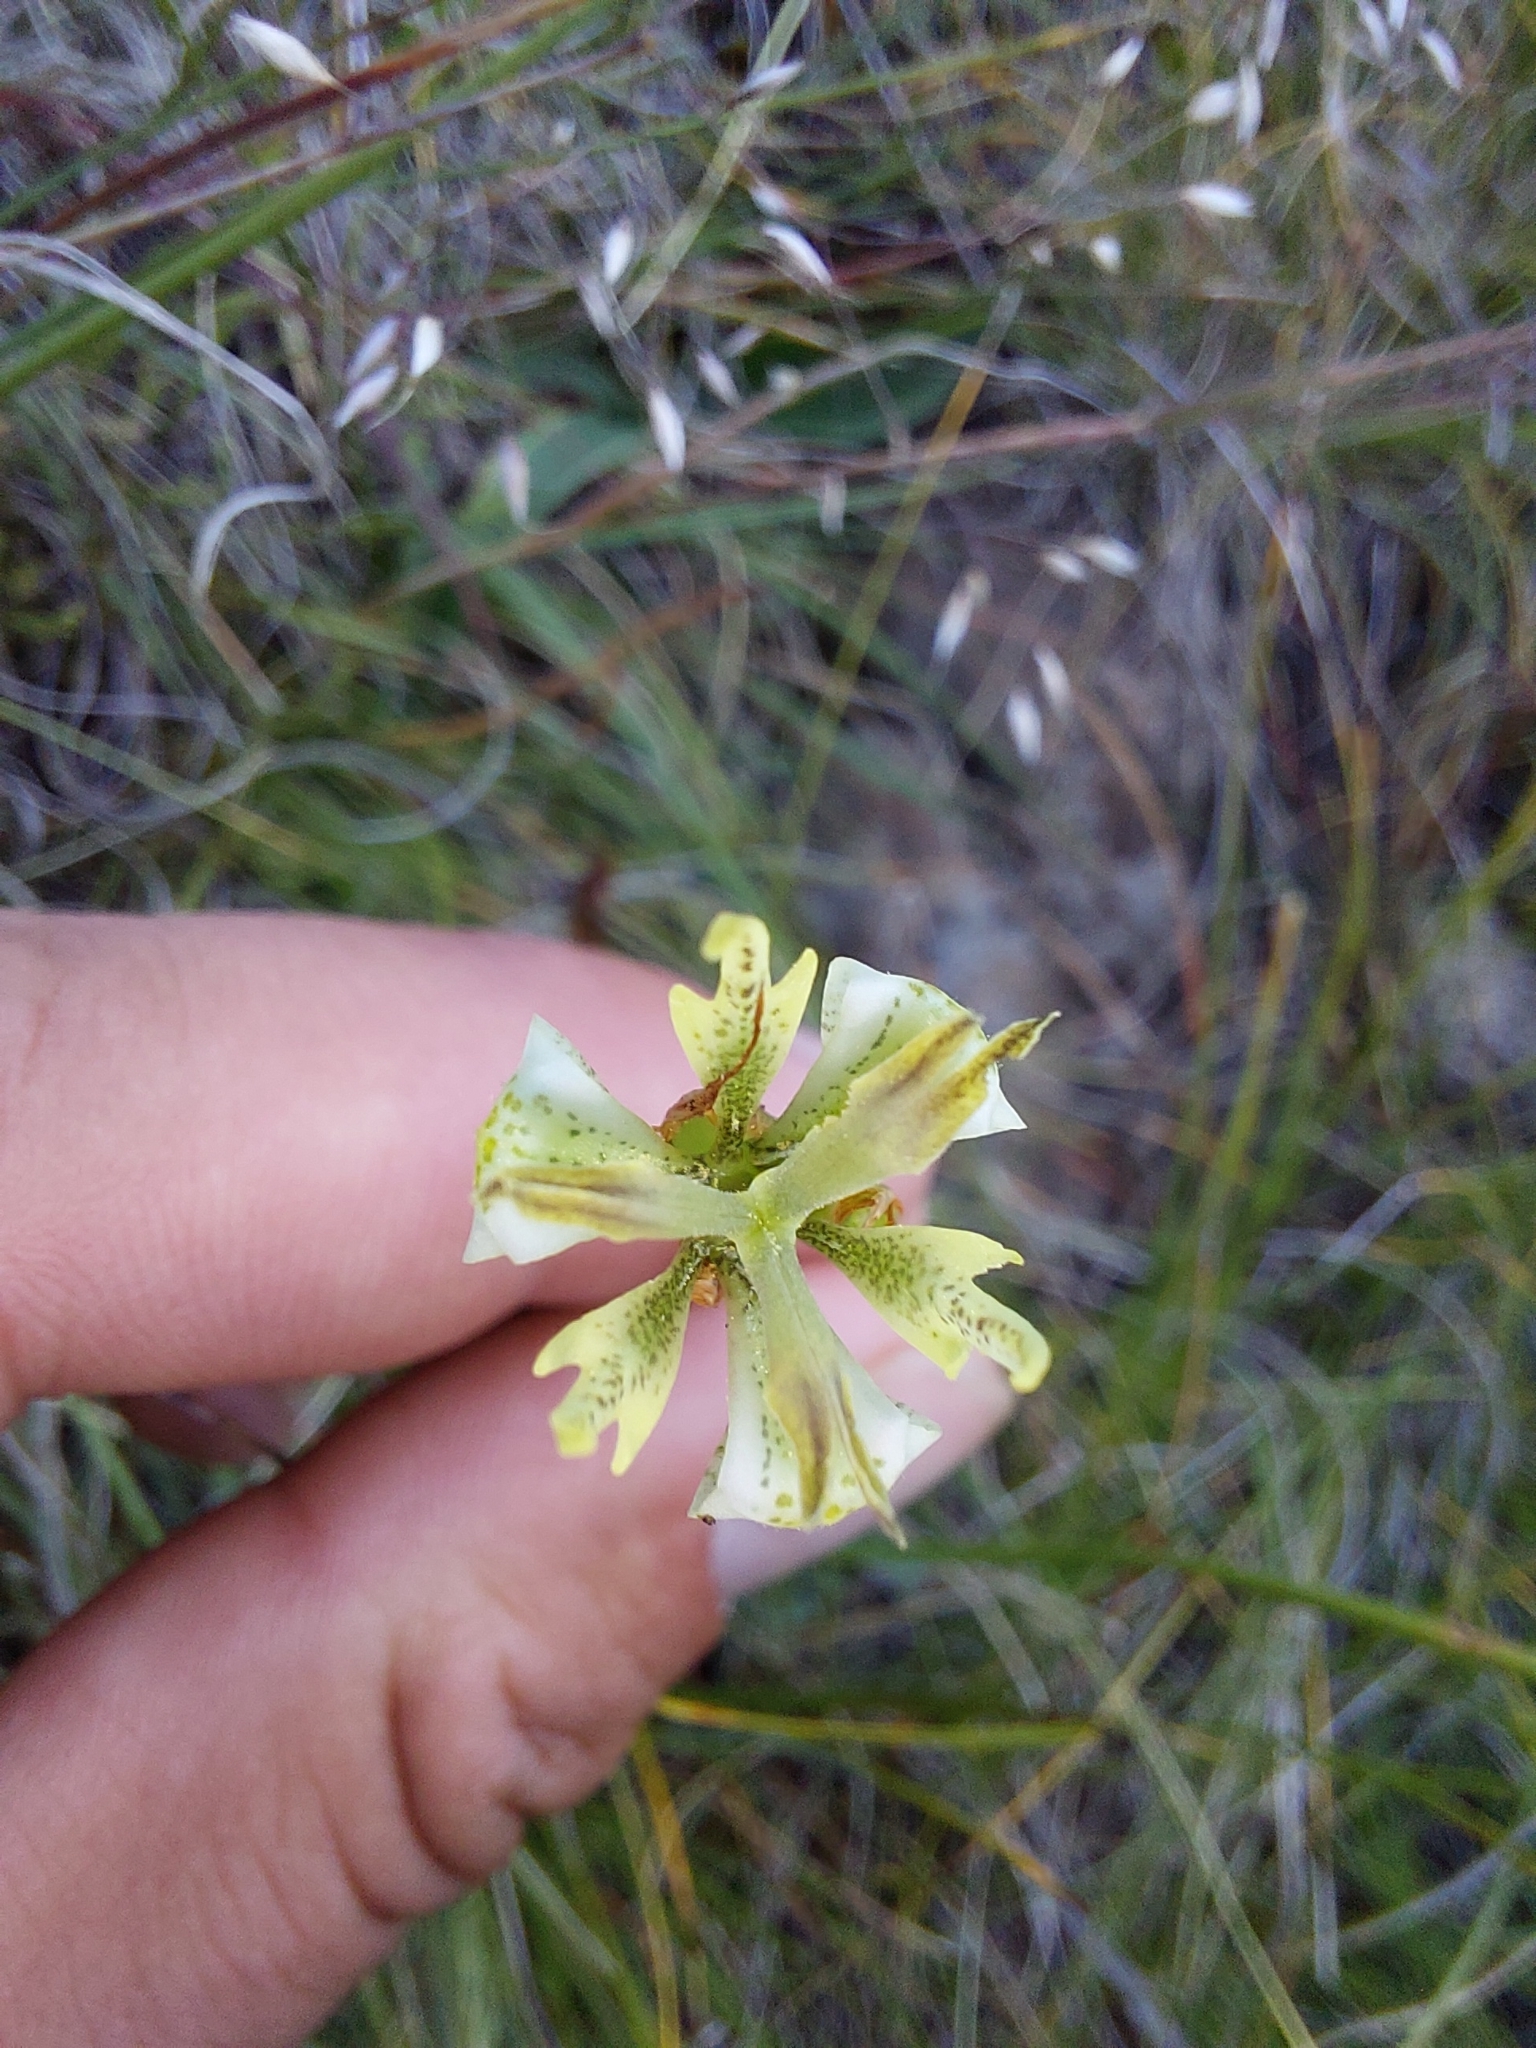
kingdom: Plantae
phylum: Tracheophyta
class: Liliopsida
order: Asparagales
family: Iridaceae
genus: Moraea
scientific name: Moraea trifida
